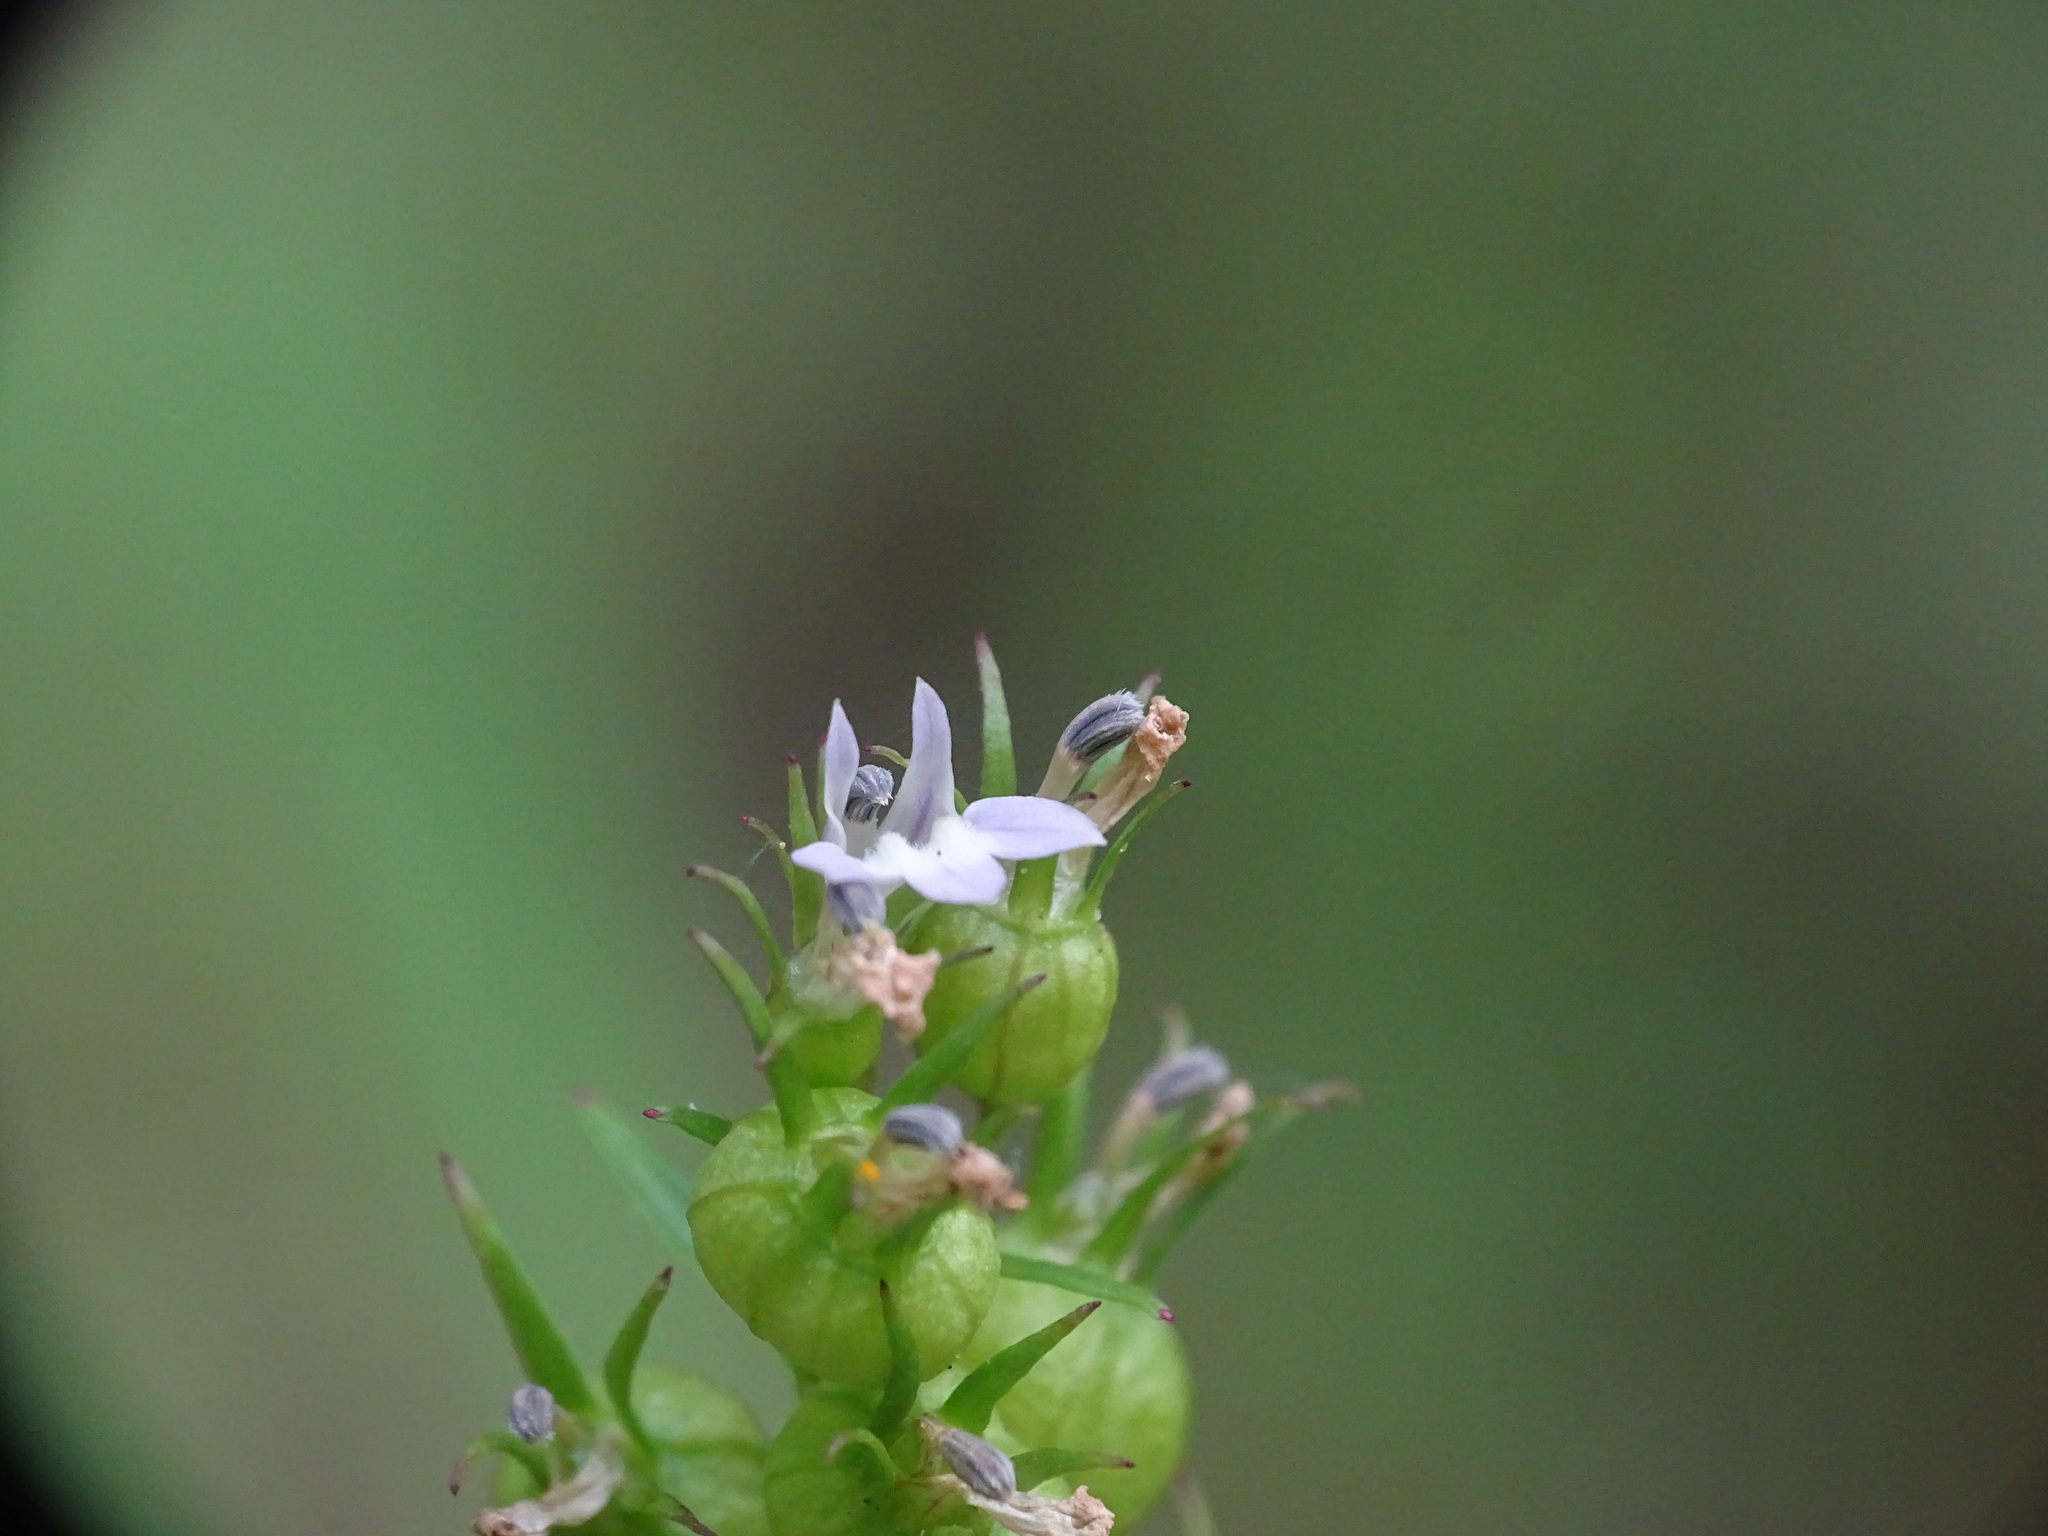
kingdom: Plantae
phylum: Tracheophyta
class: Magnoliopsida
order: Asterales
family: Campanulaceae
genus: Lobelia
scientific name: Lobelia inflata
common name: Indian tobacco
